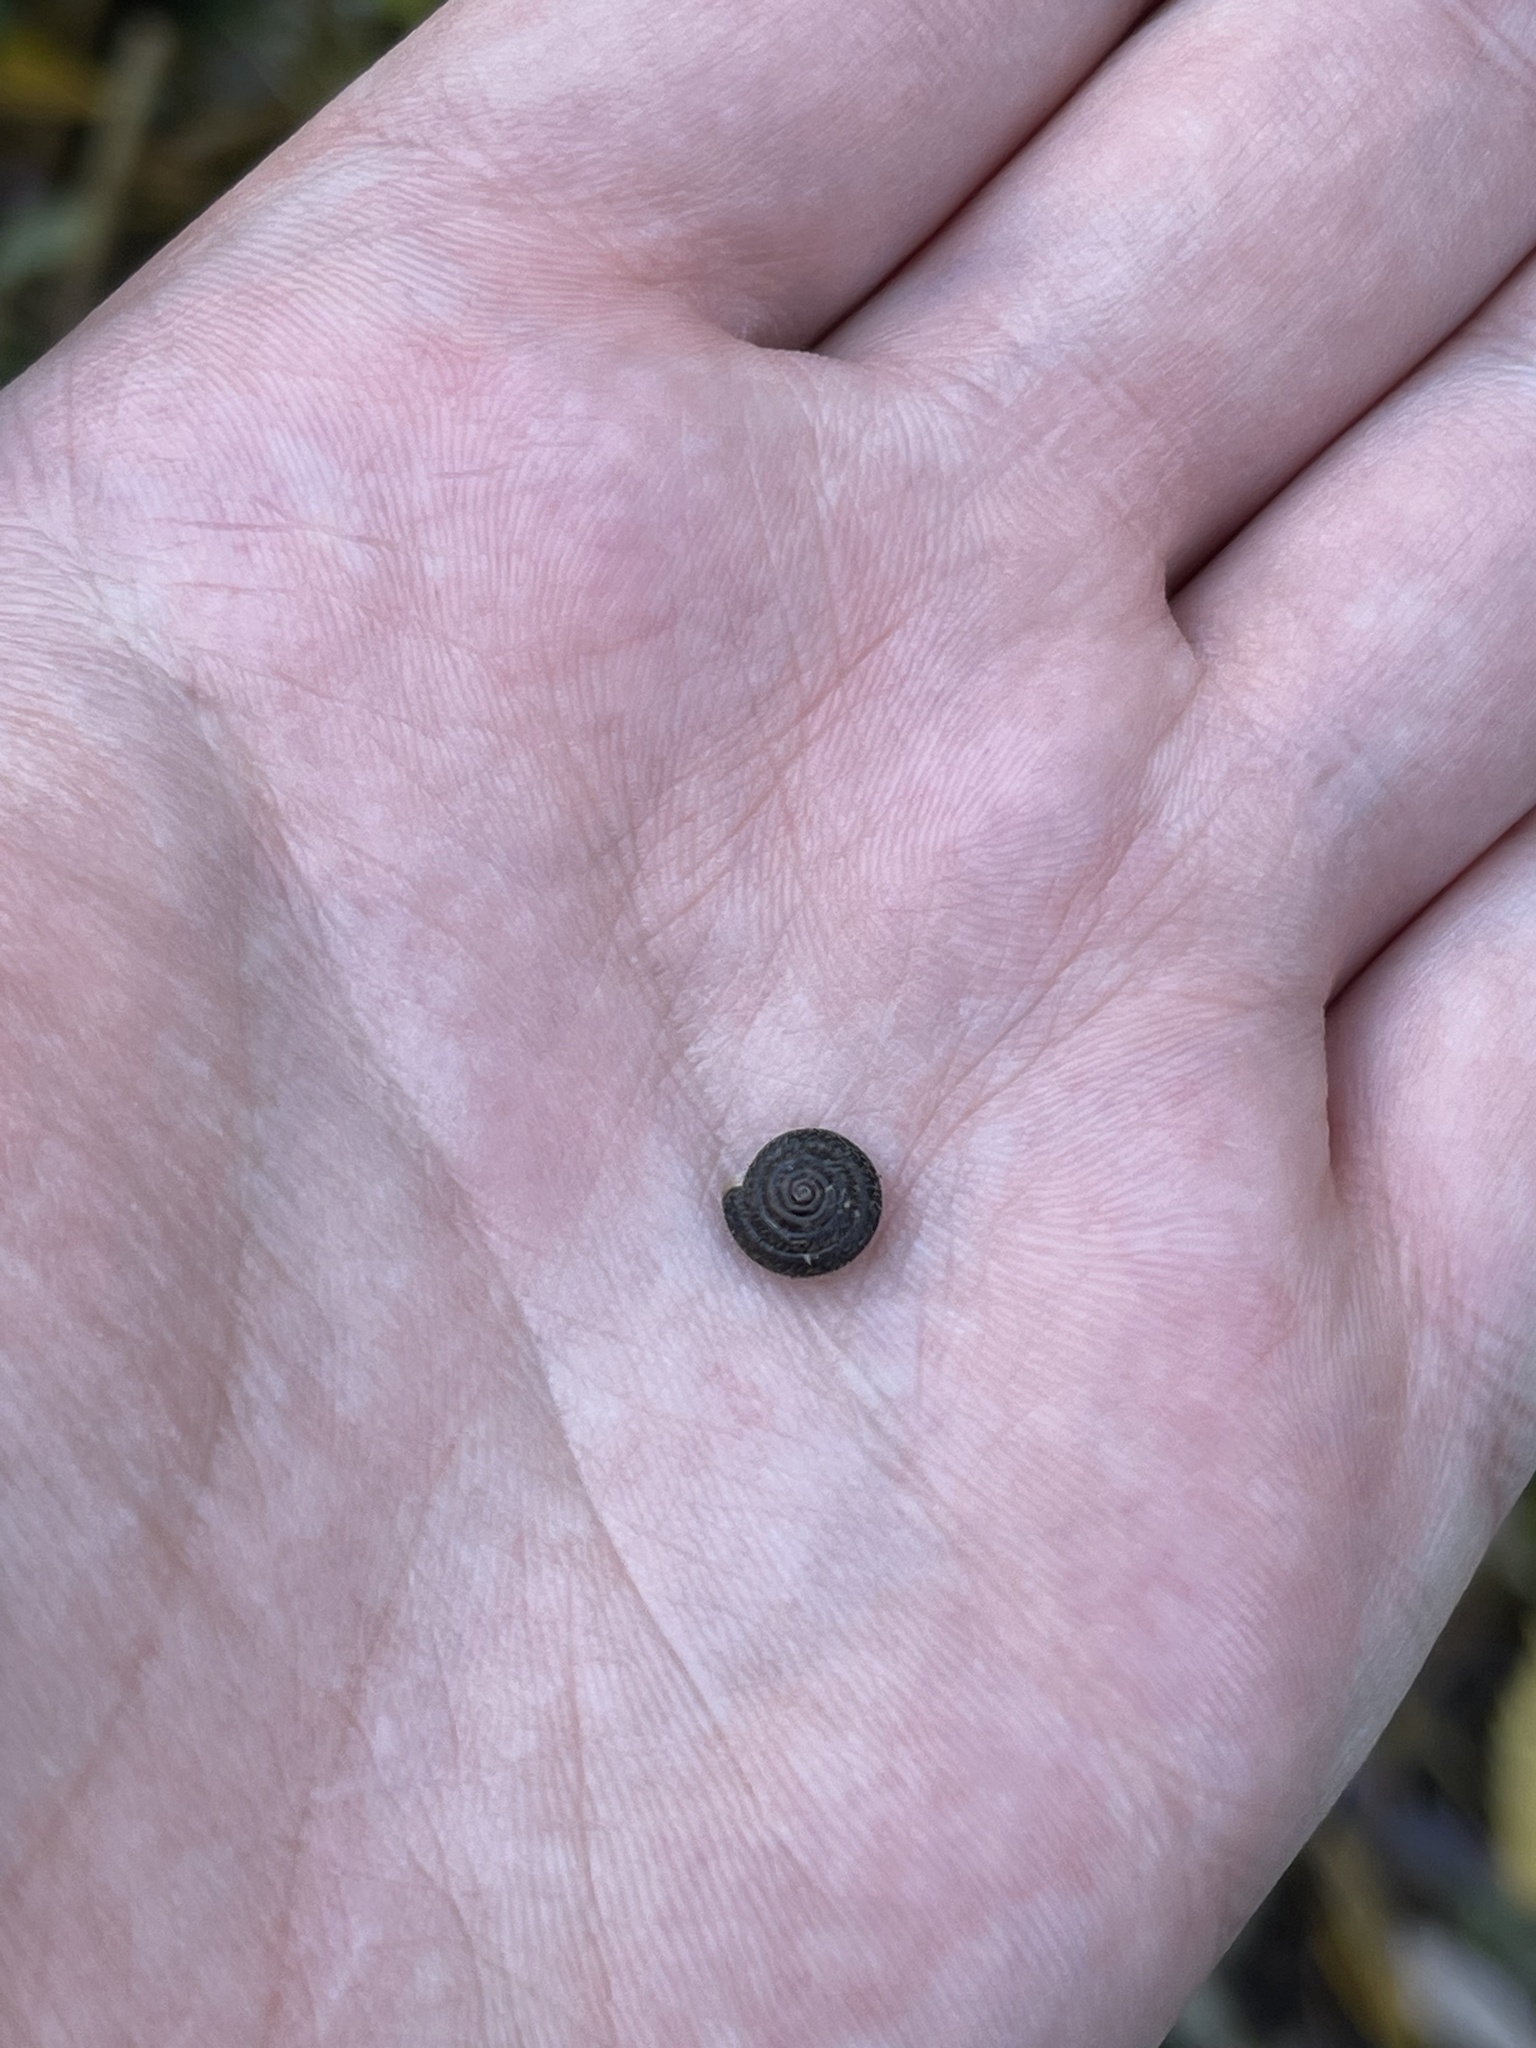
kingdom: Animalia
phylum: Mollusca
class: Gastropoda
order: Stylommatophora
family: Hygromiidae
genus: Trochulus
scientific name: Trochulus hispidus
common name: Hairy snail
